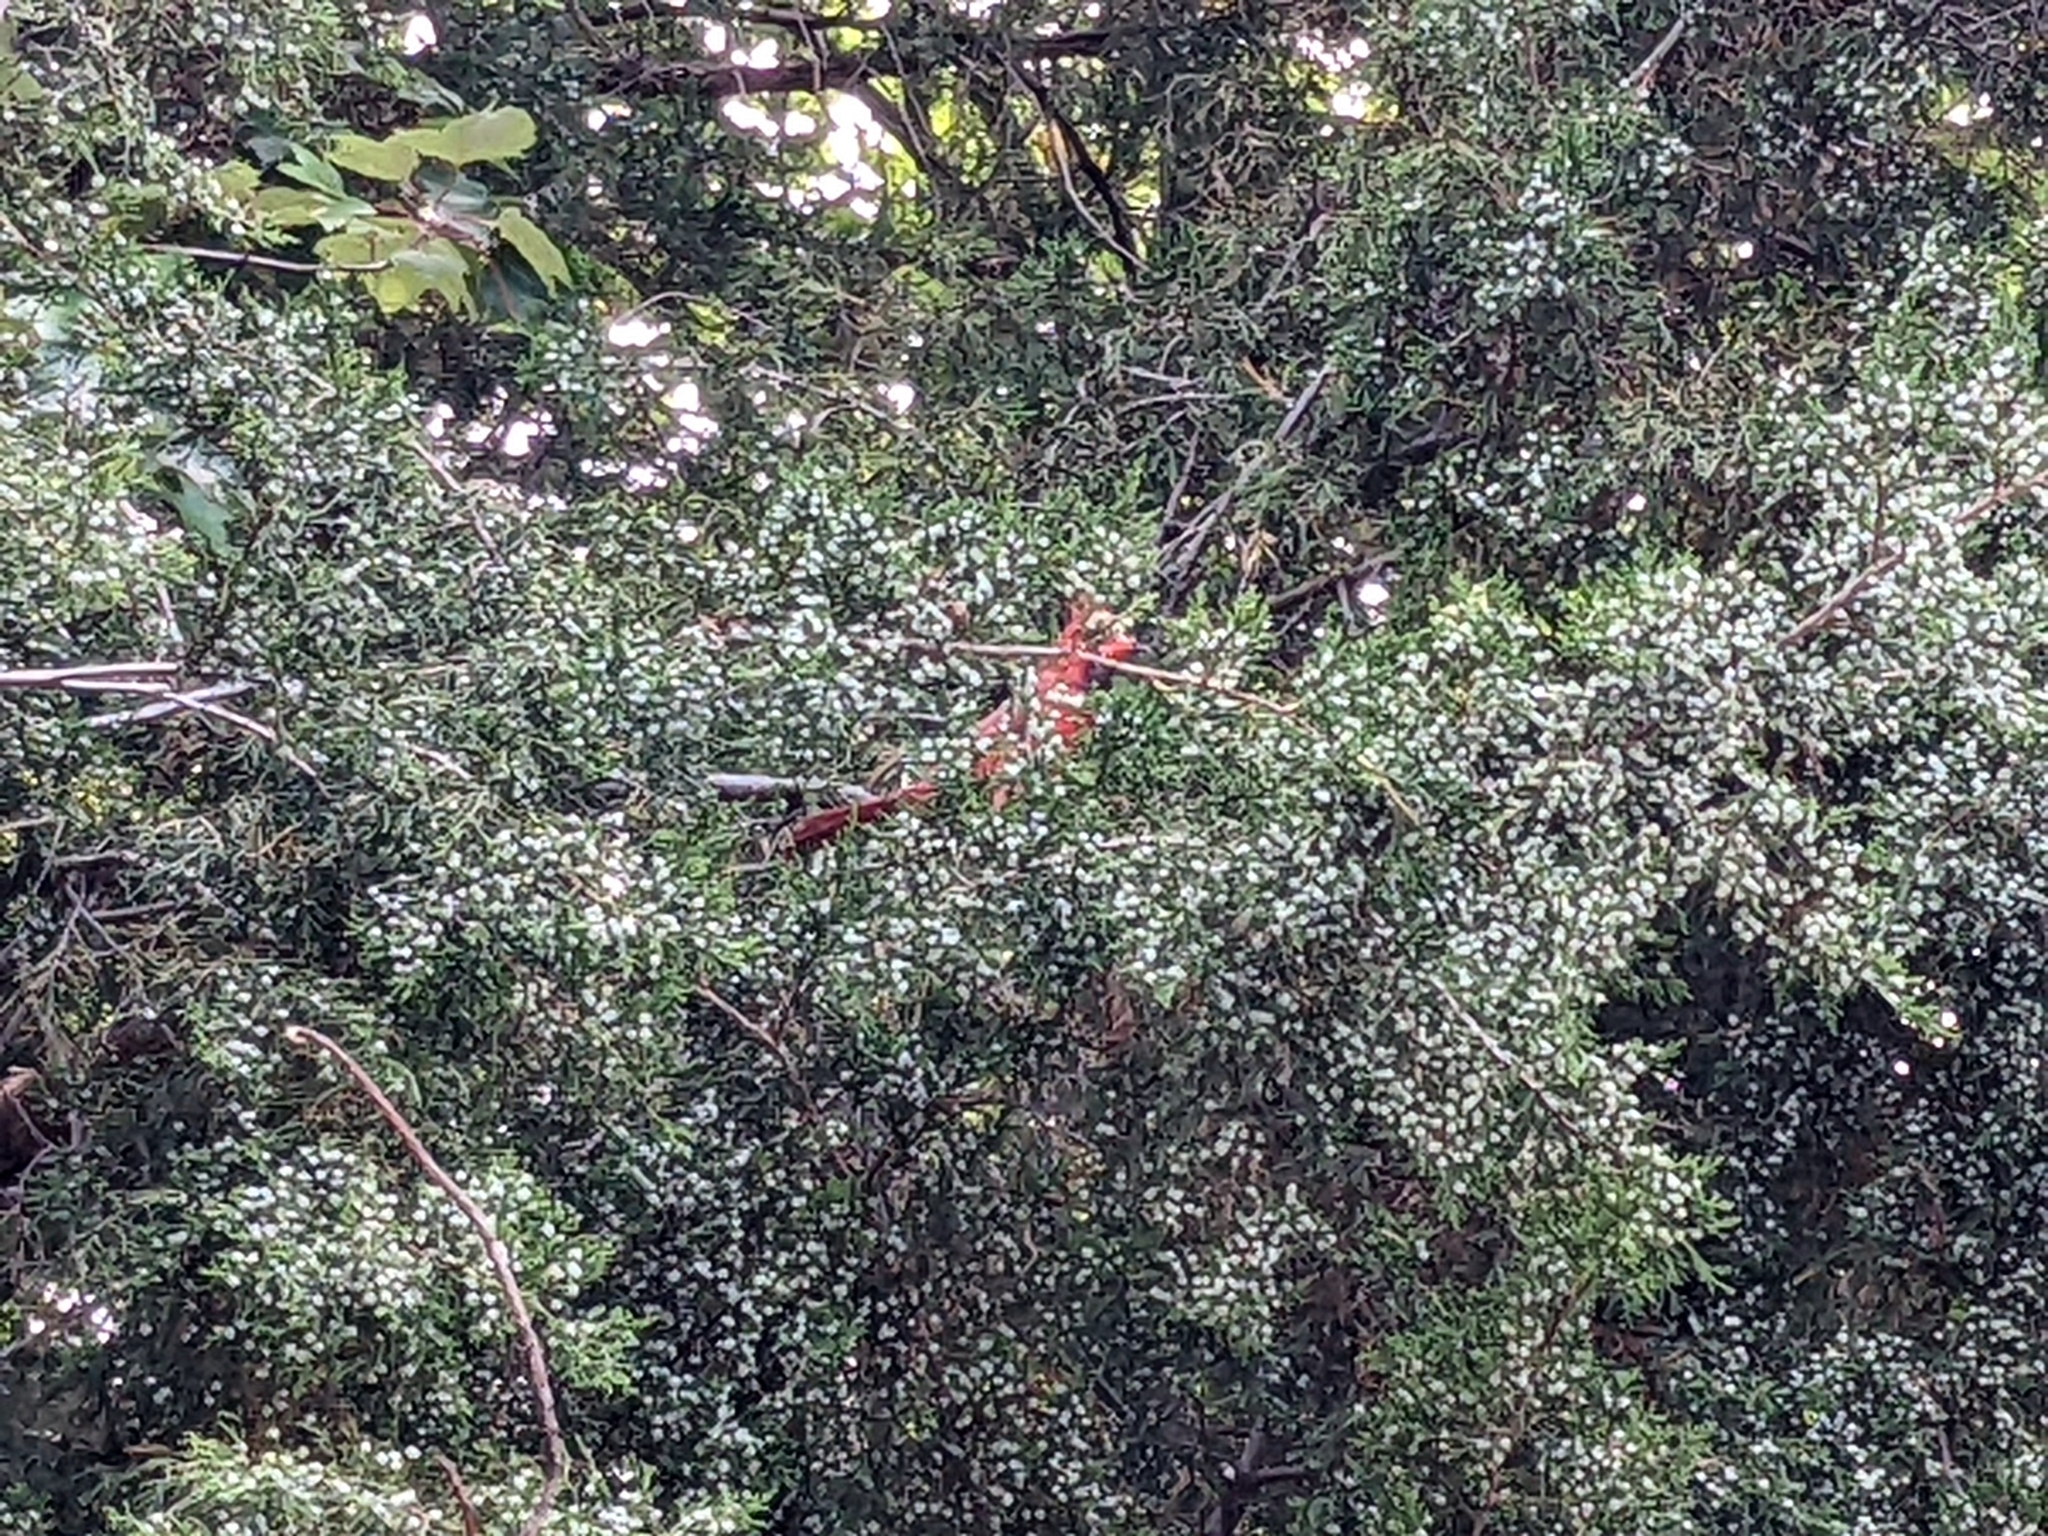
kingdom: Animalia
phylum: Chordata
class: Aves
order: Passeriformes
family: Cardinalidae
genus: Cardinalis
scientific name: Cardinalis cardinalis
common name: Northern cardinal
